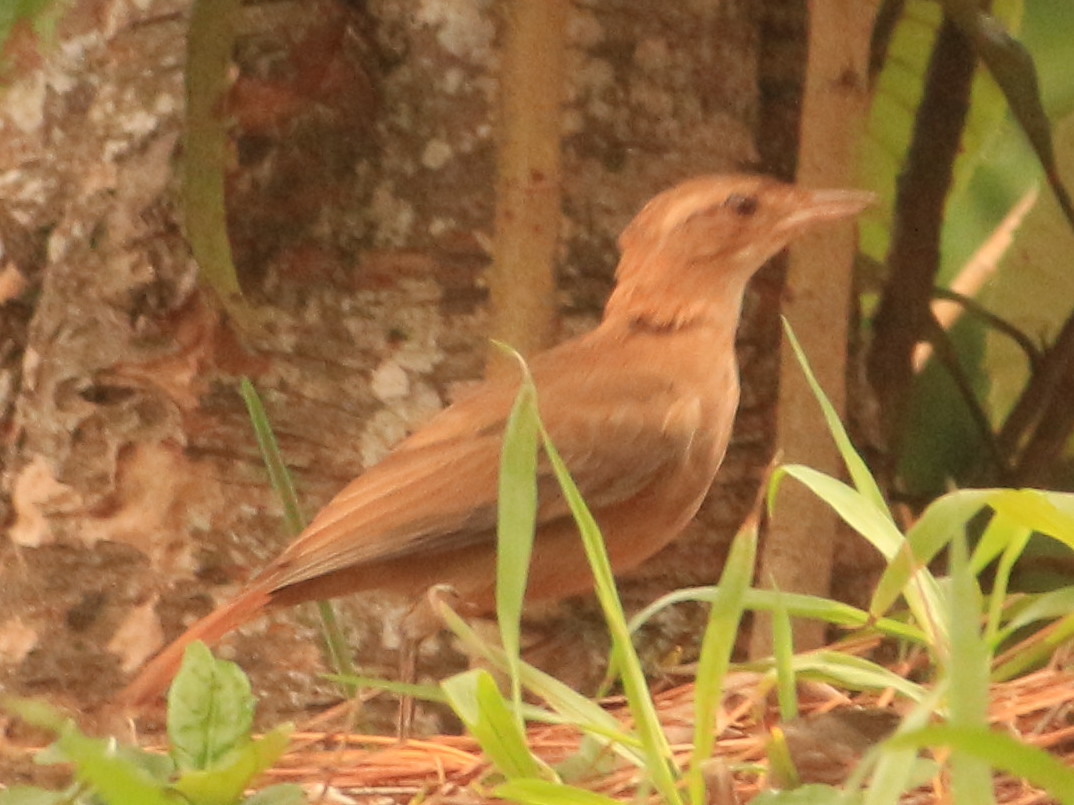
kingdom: Animalia
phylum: Chordata
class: Aves
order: Passeriformes
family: Furnariidae
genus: Furnarius
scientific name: Furnarius rufus
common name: Rufous hornero
